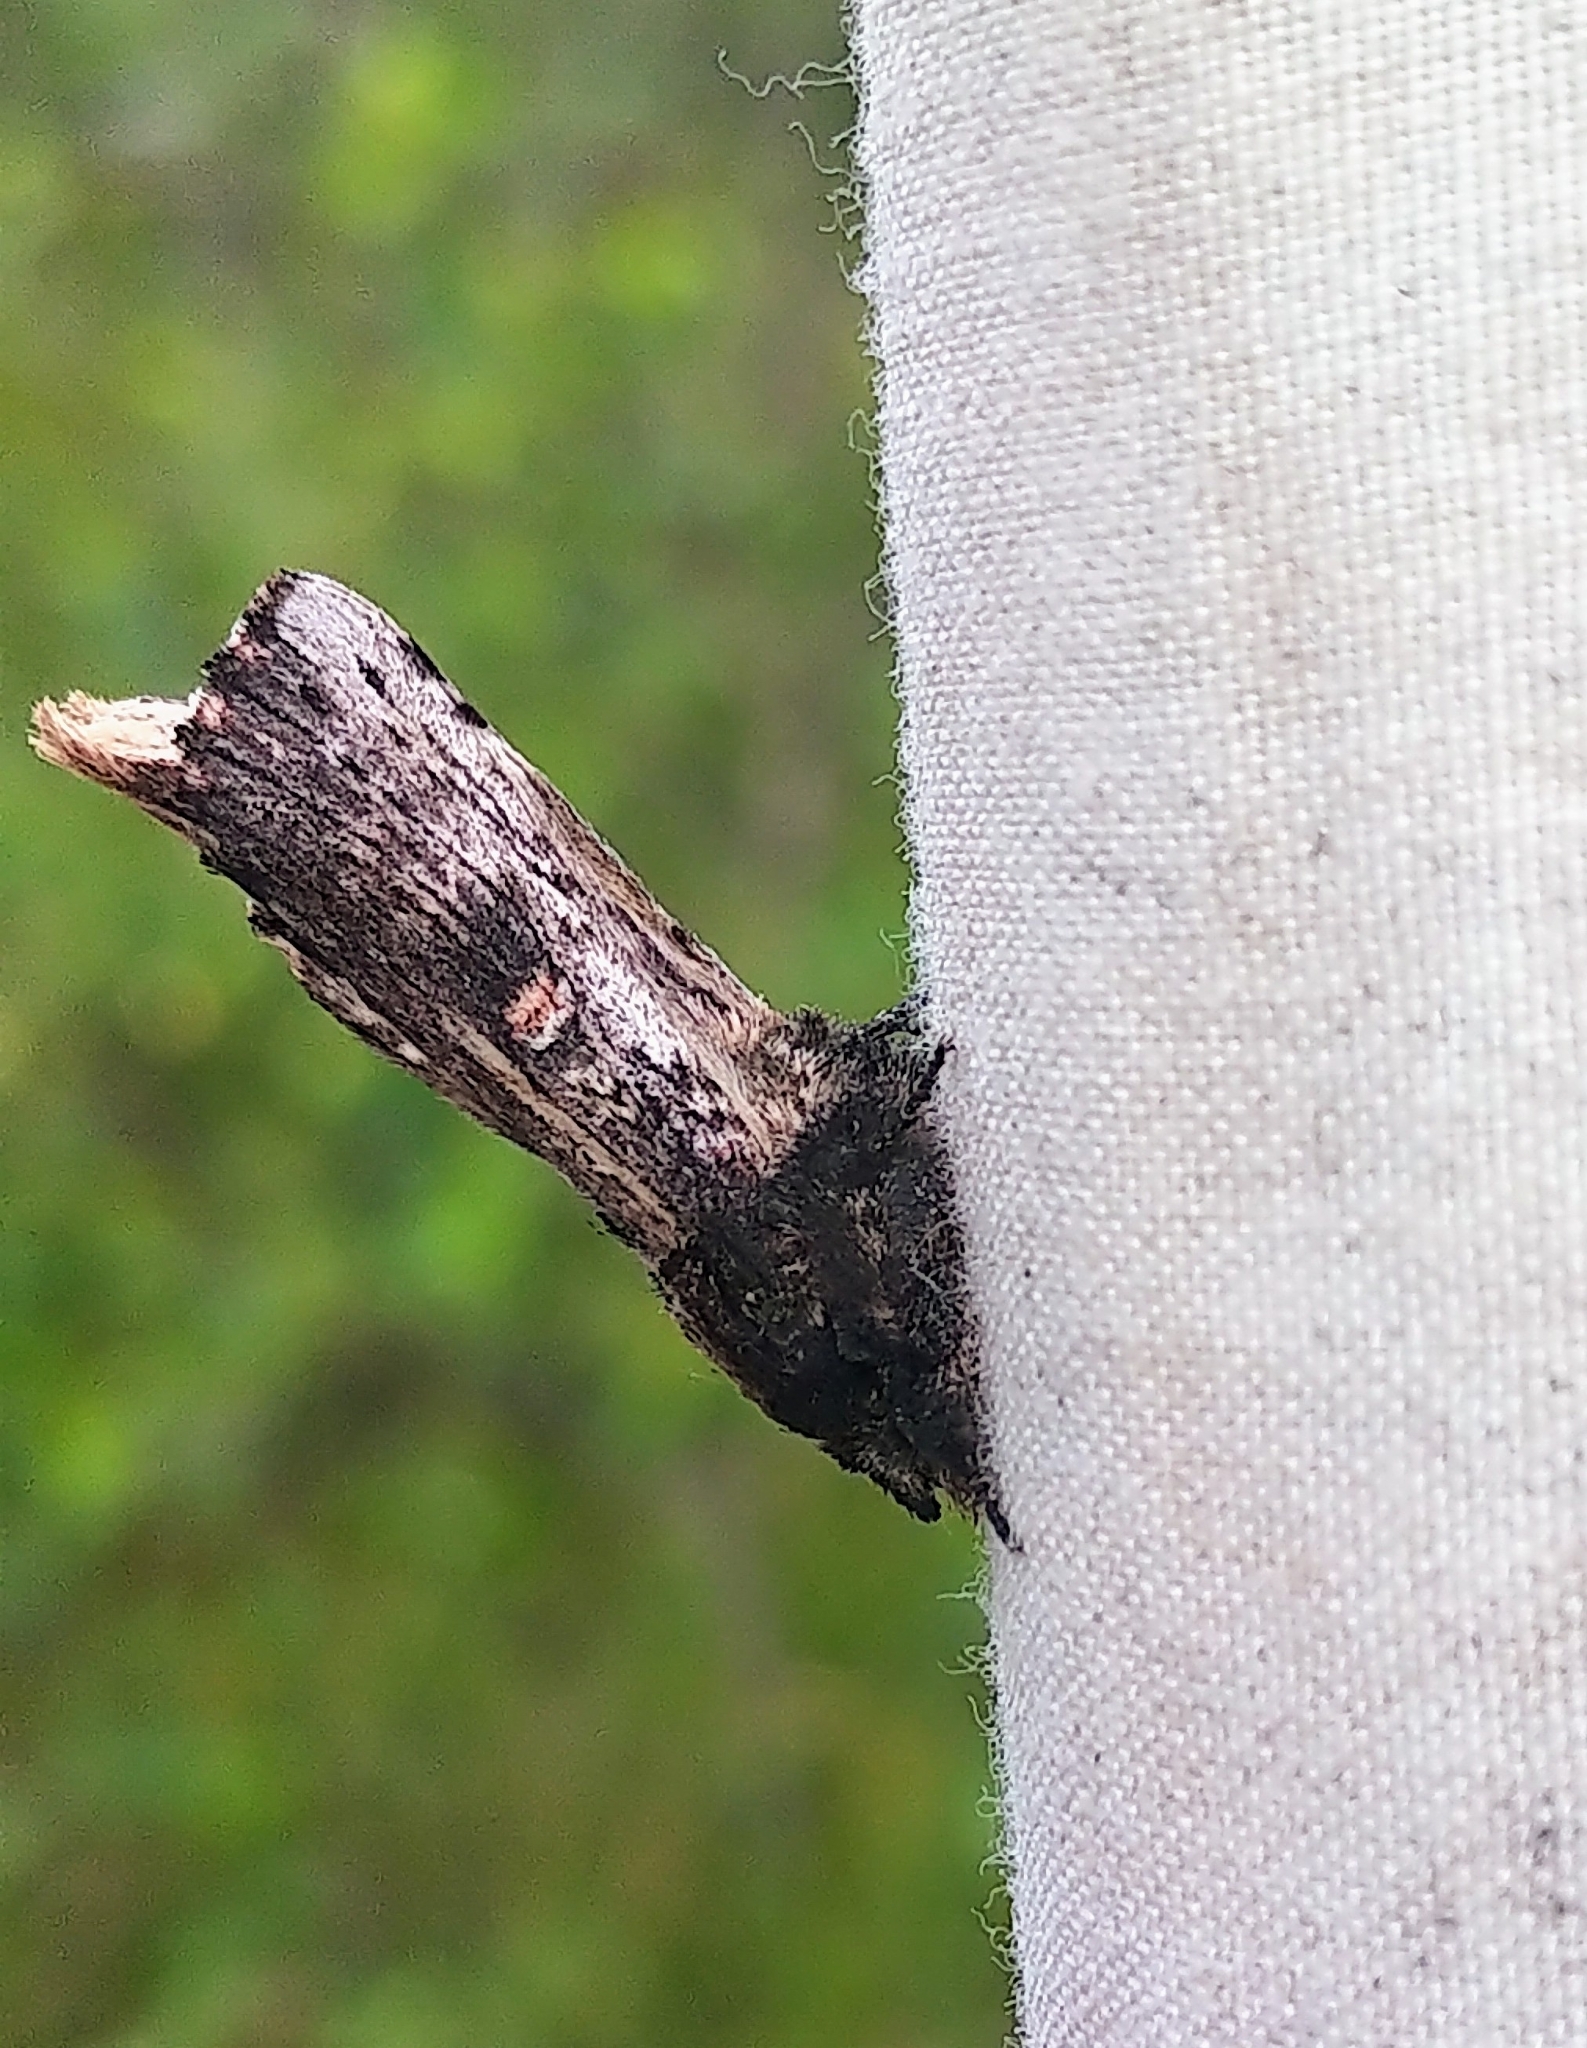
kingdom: Animalia
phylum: Arthropoda
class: Insecta
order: Lepidoptera
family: Notodontidae
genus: Schizura
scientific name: Schizura ipomaeae
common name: Morning-glory prominent
